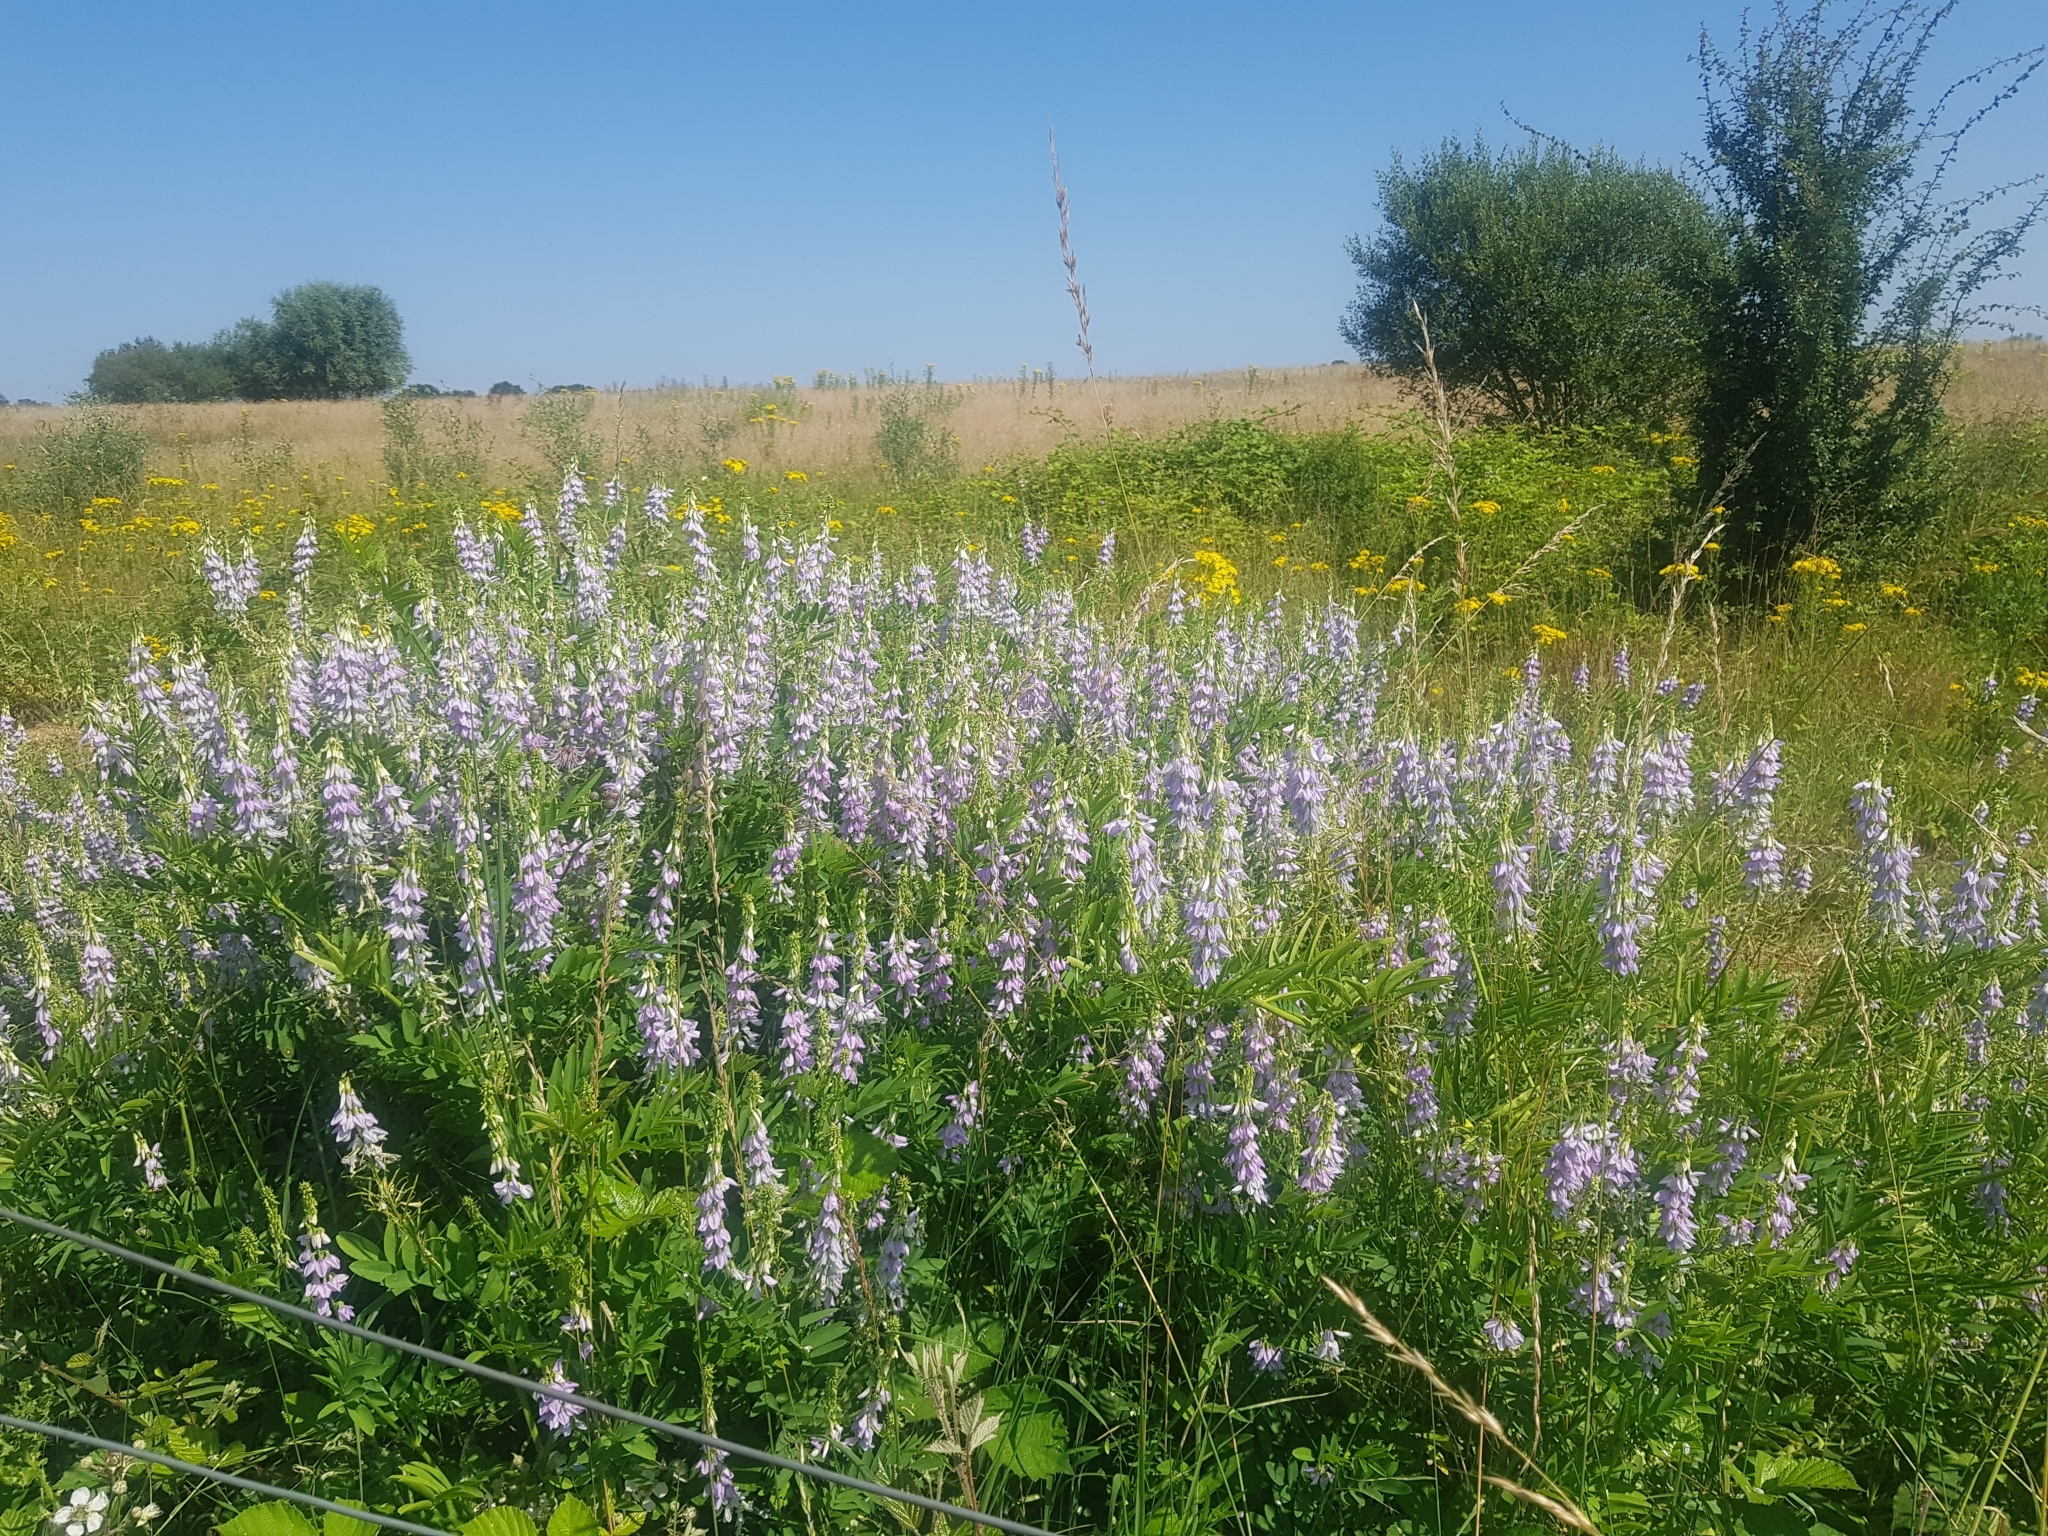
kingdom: Plantae
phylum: Tracheophyta
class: Magnoliopsida
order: Fabales
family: Fabaceae
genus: Galega
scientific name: Galega officinalis
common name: Goat's-rue
